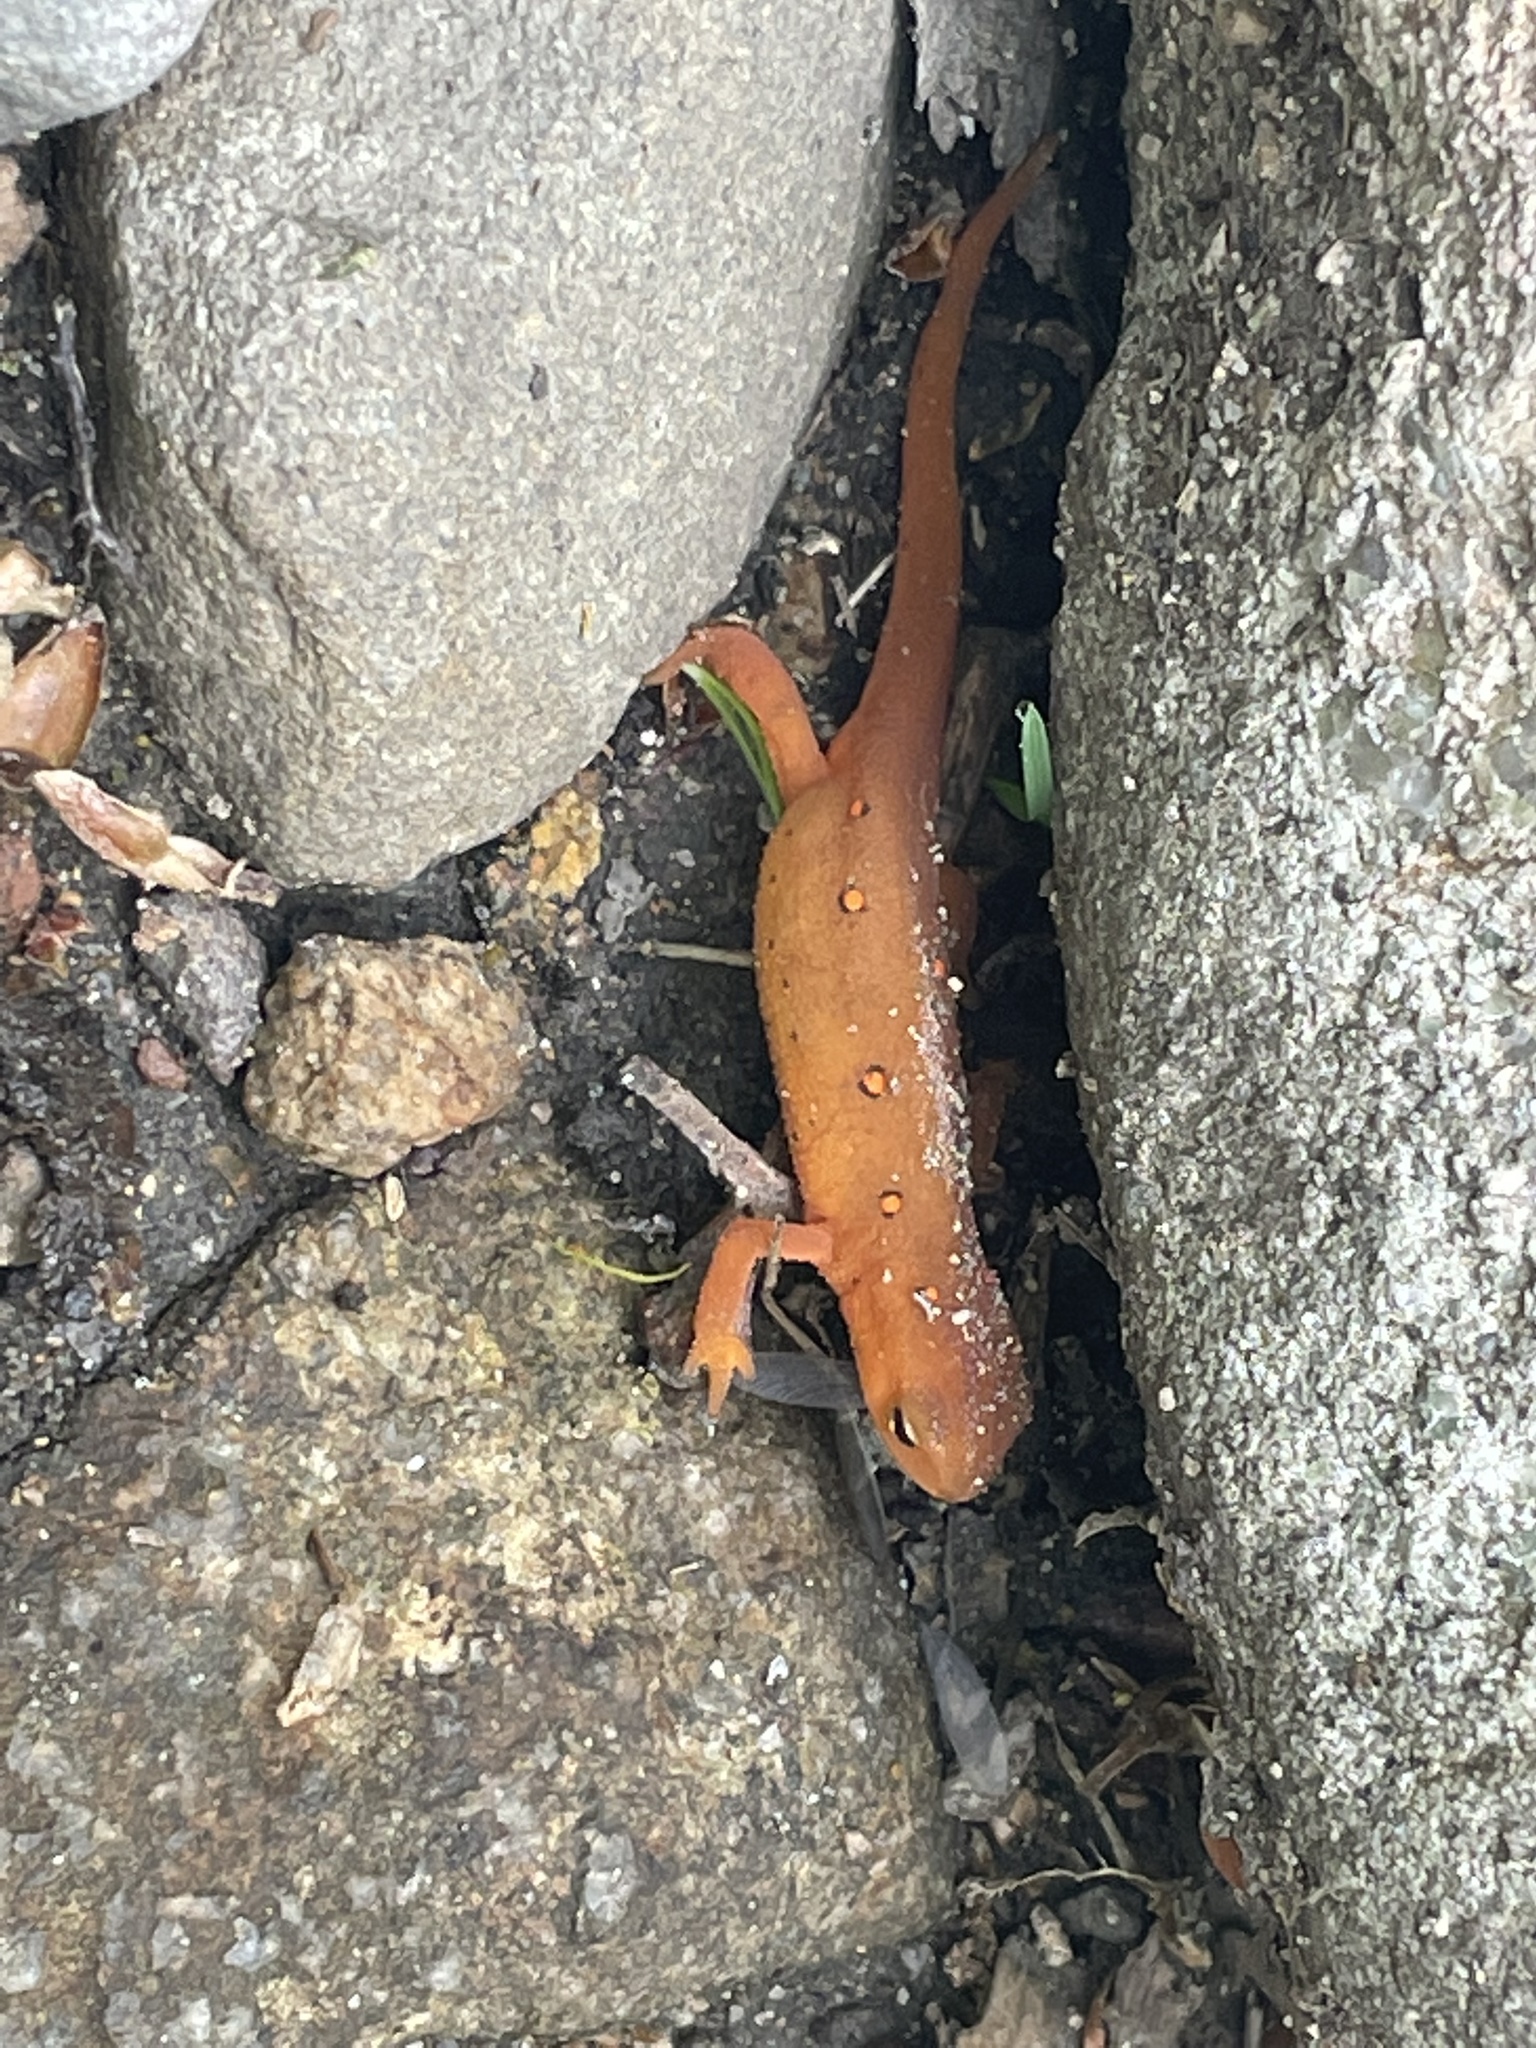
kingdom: Animalia
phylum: Chordata
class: Amphibia
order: Caudata
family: Salamandridae
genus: Notophthalmus
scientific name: Notophthalmus viridescens
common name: Eastern newt
